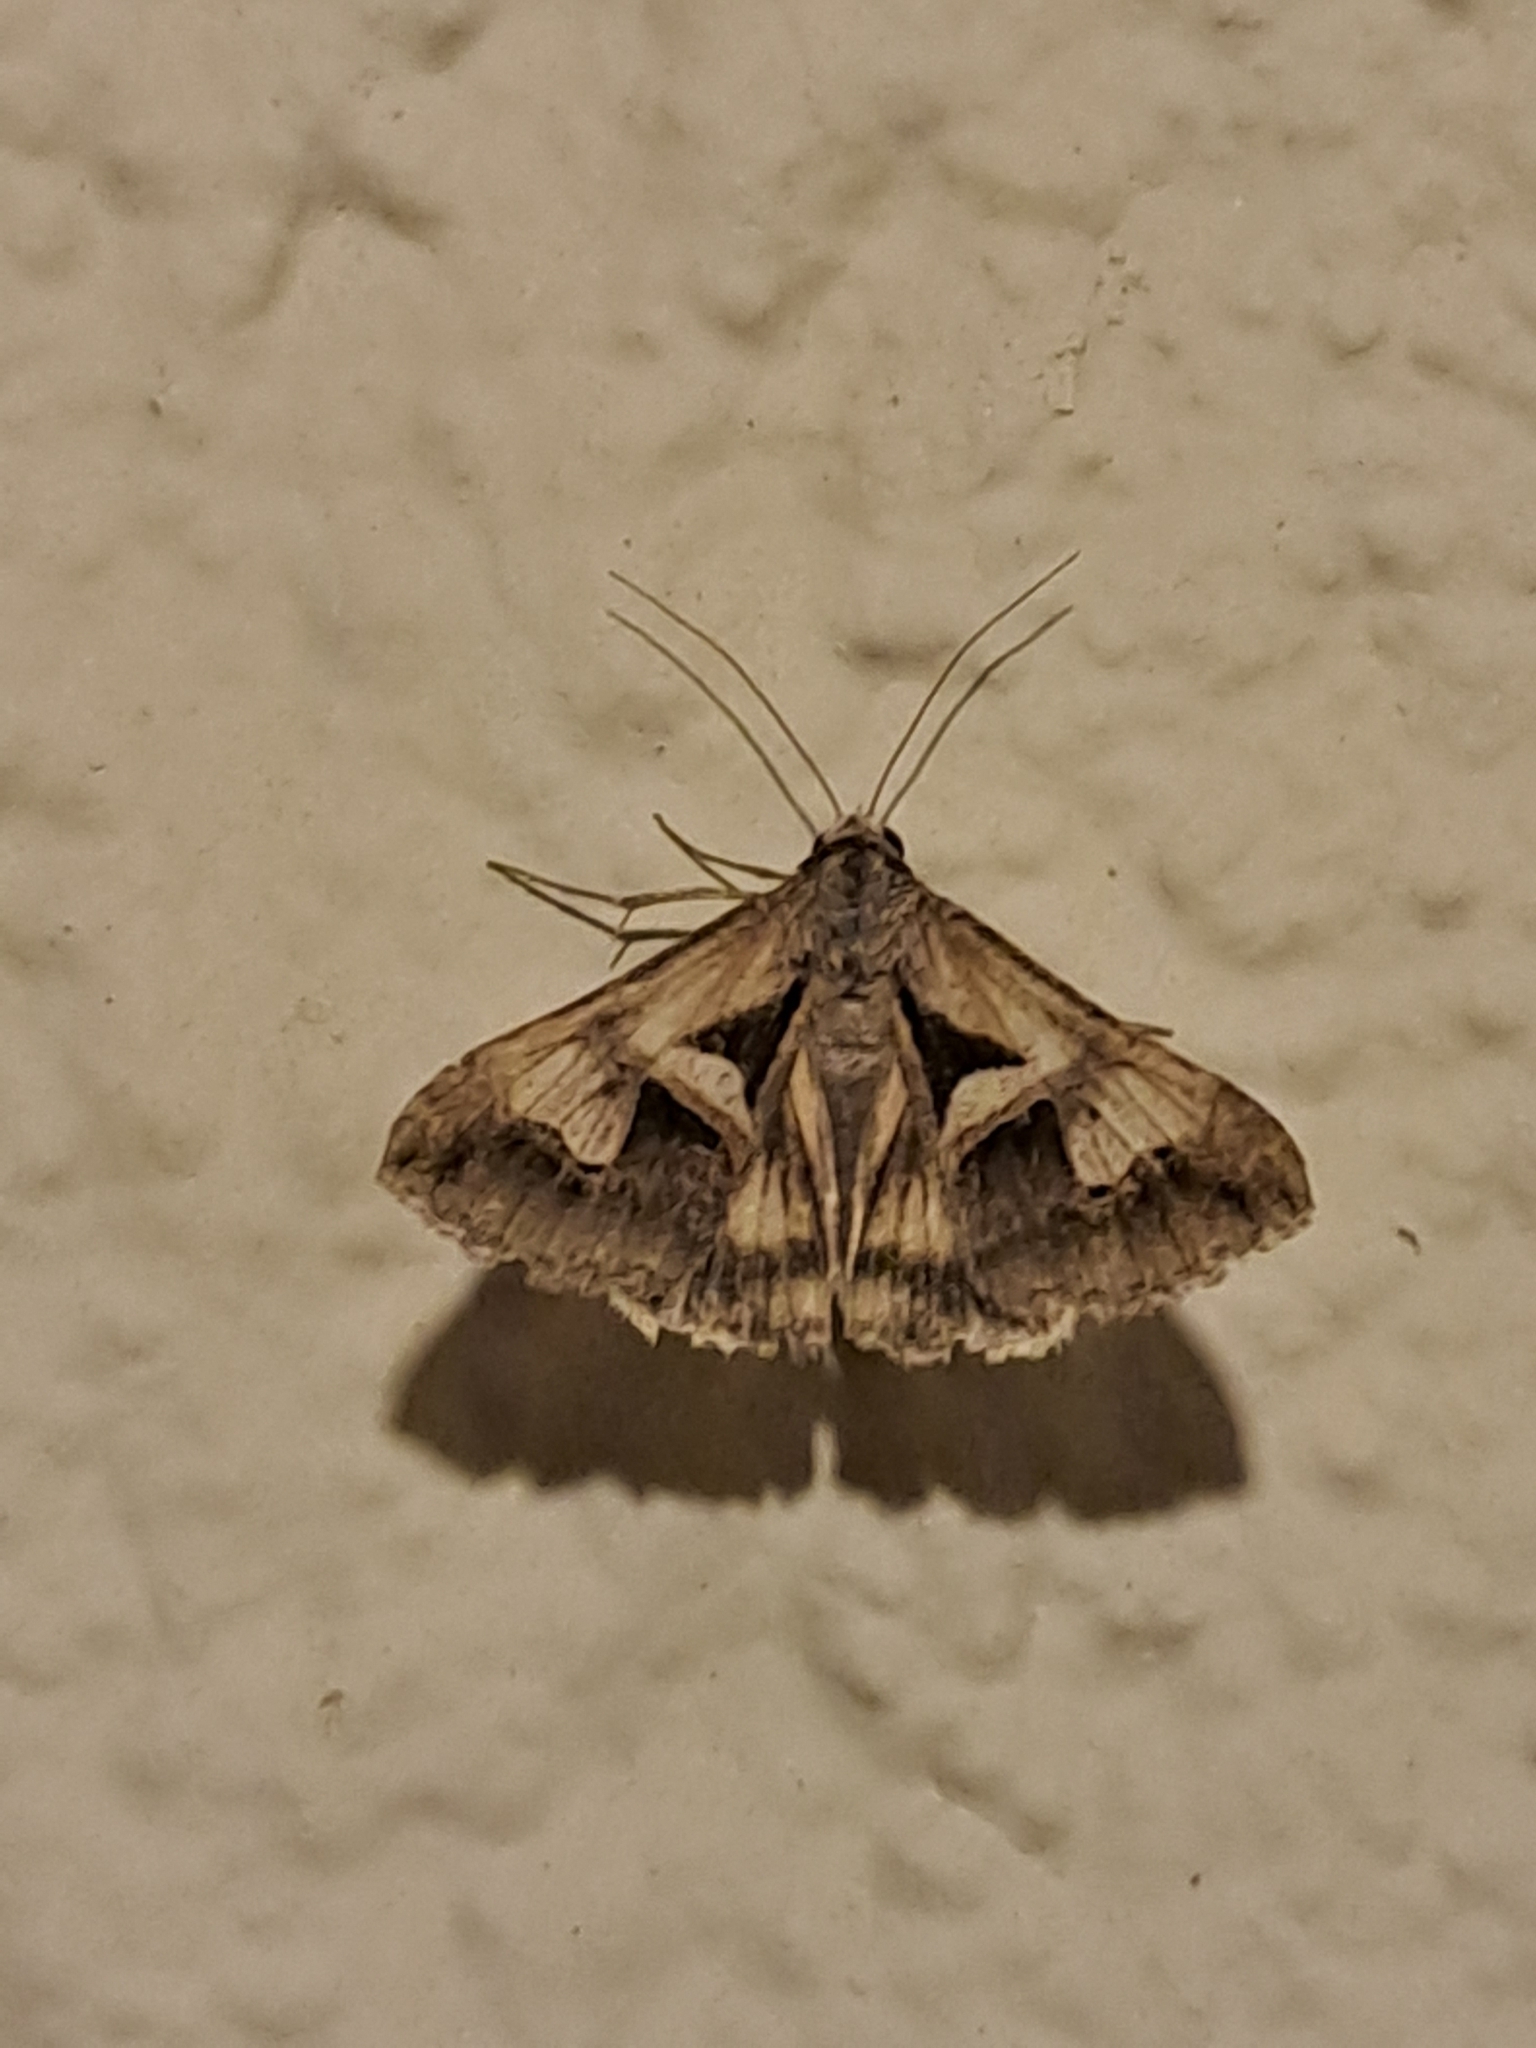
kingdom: Animalia
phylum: Arthropoda
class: Insecta
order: Lepidoptera
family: Erebidae
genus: Melipotis
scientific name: Melipotis cellaris
